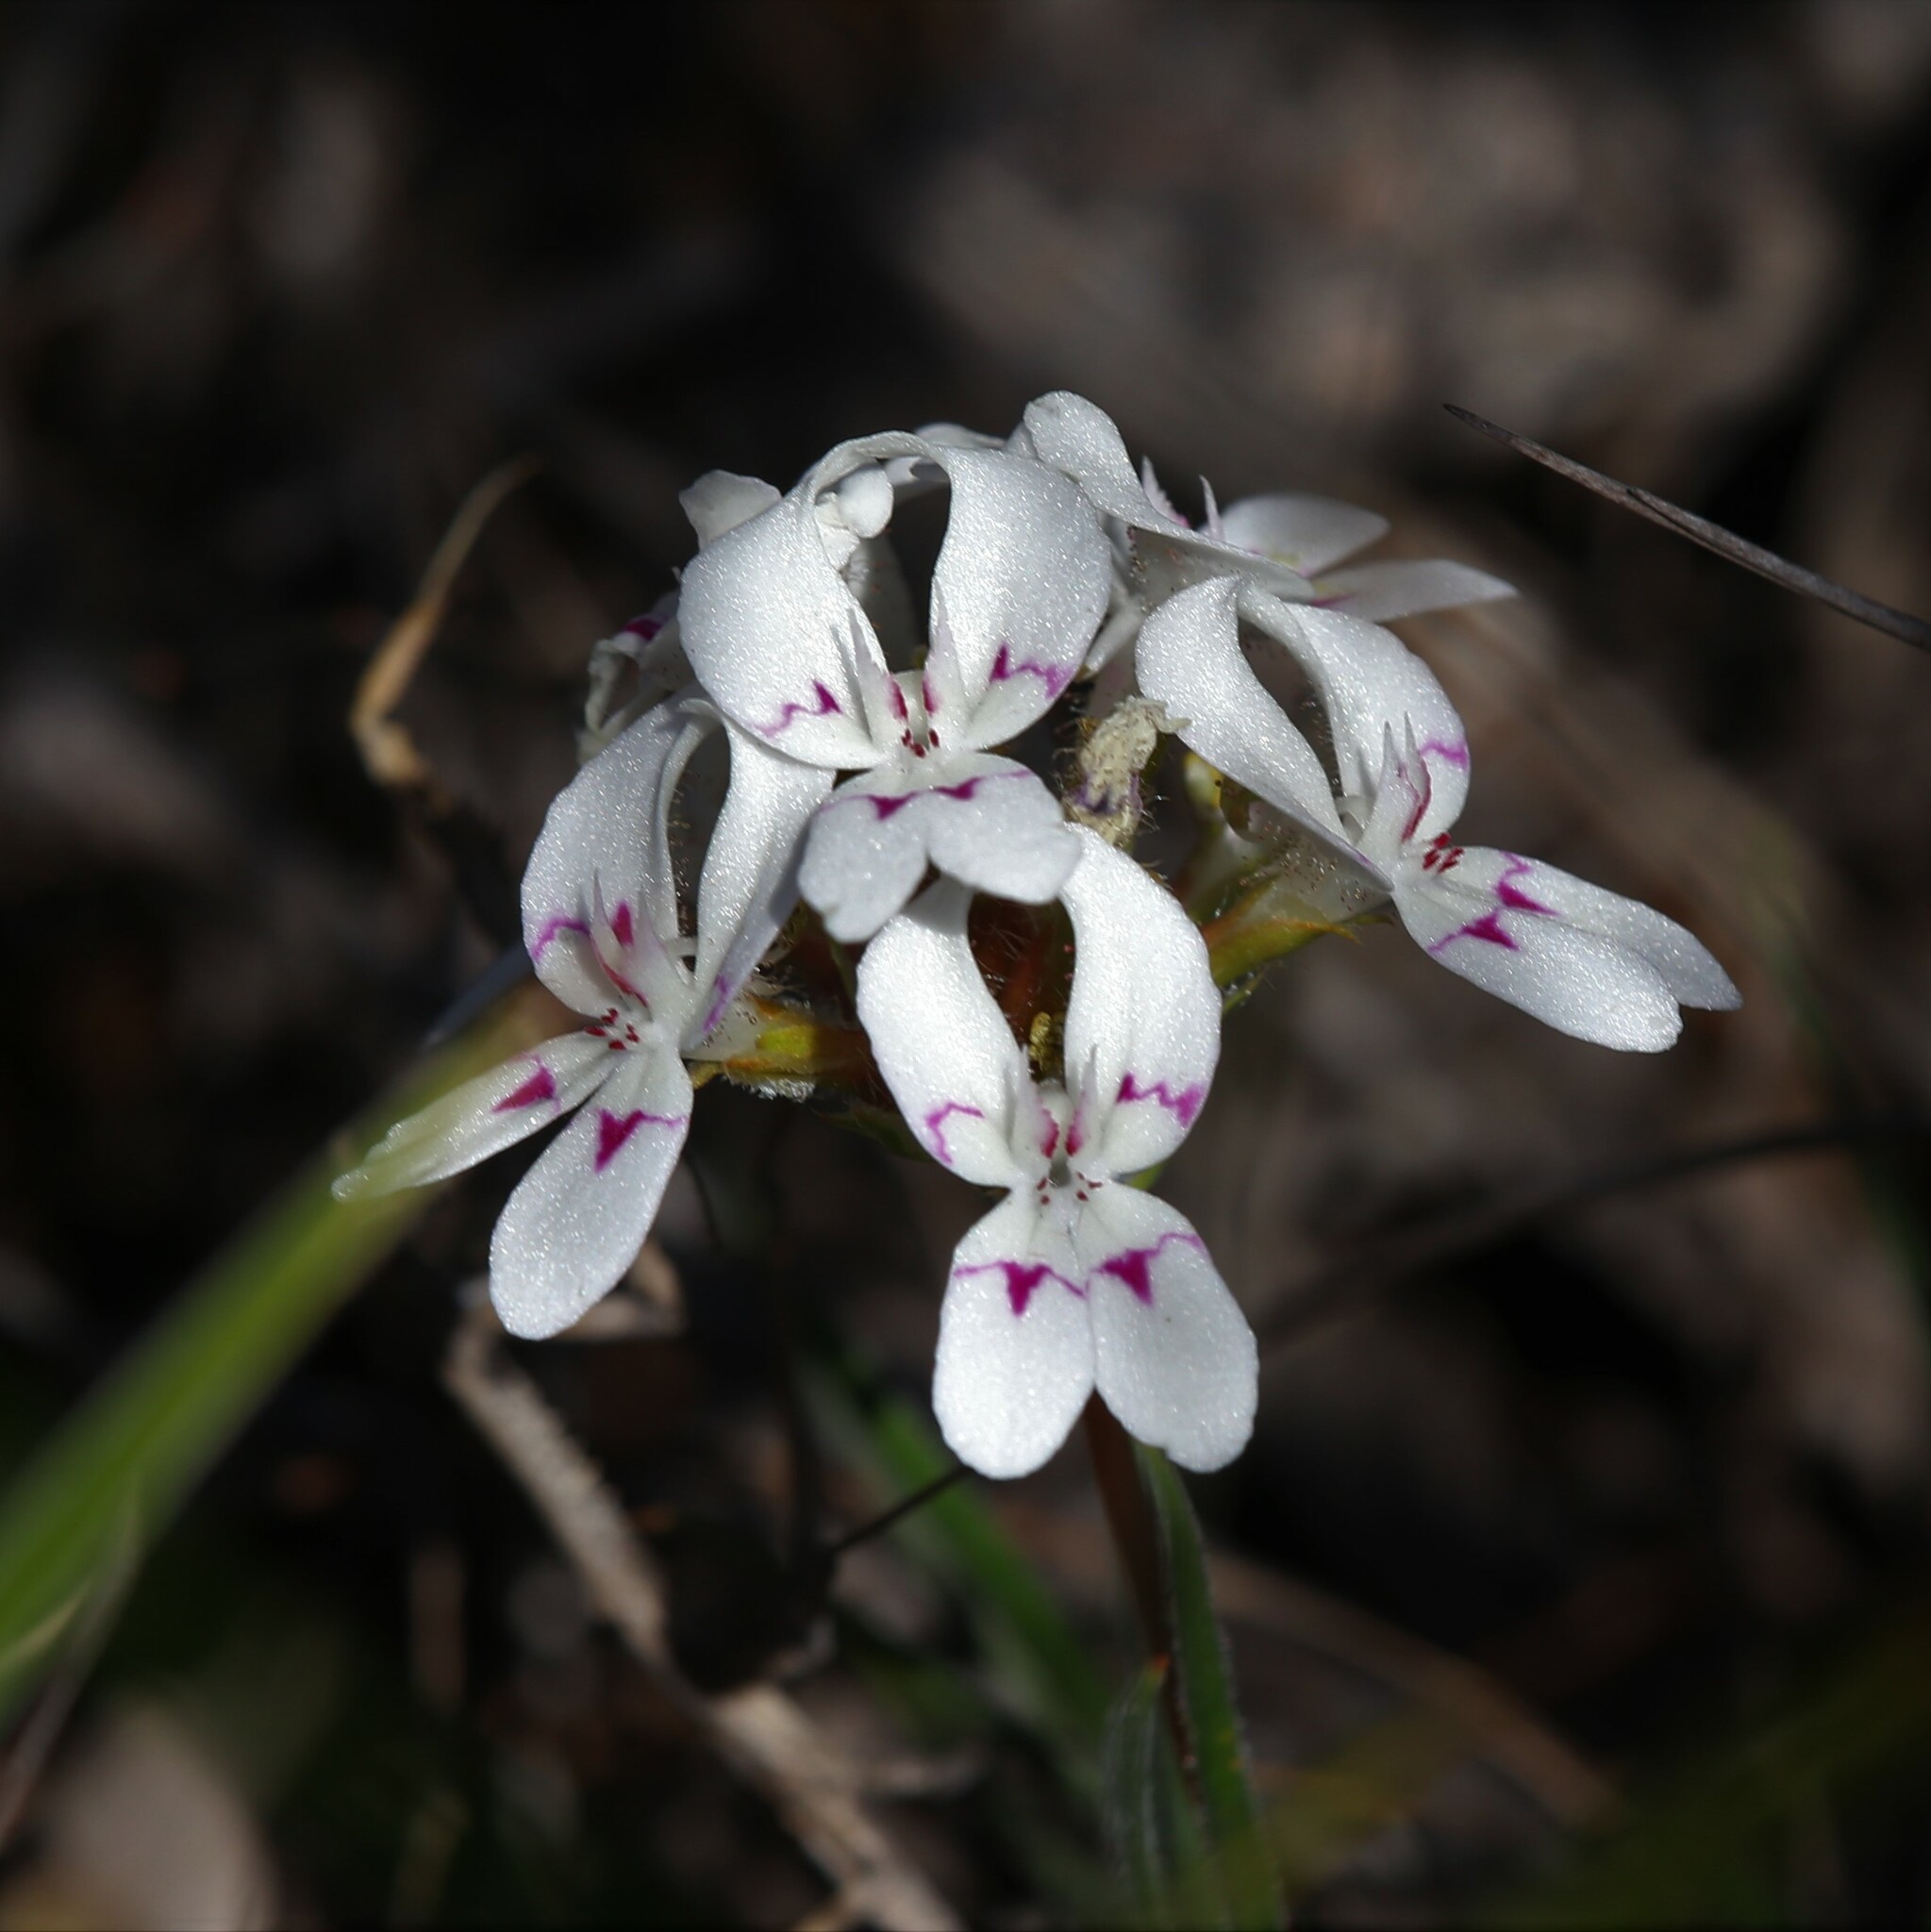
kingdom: Plantae
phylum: Tracheophyta
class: Magnoliopsida
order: Asterales
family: Stylidiaceae
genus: Stylidium
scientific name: Stylidium crossocephalum
